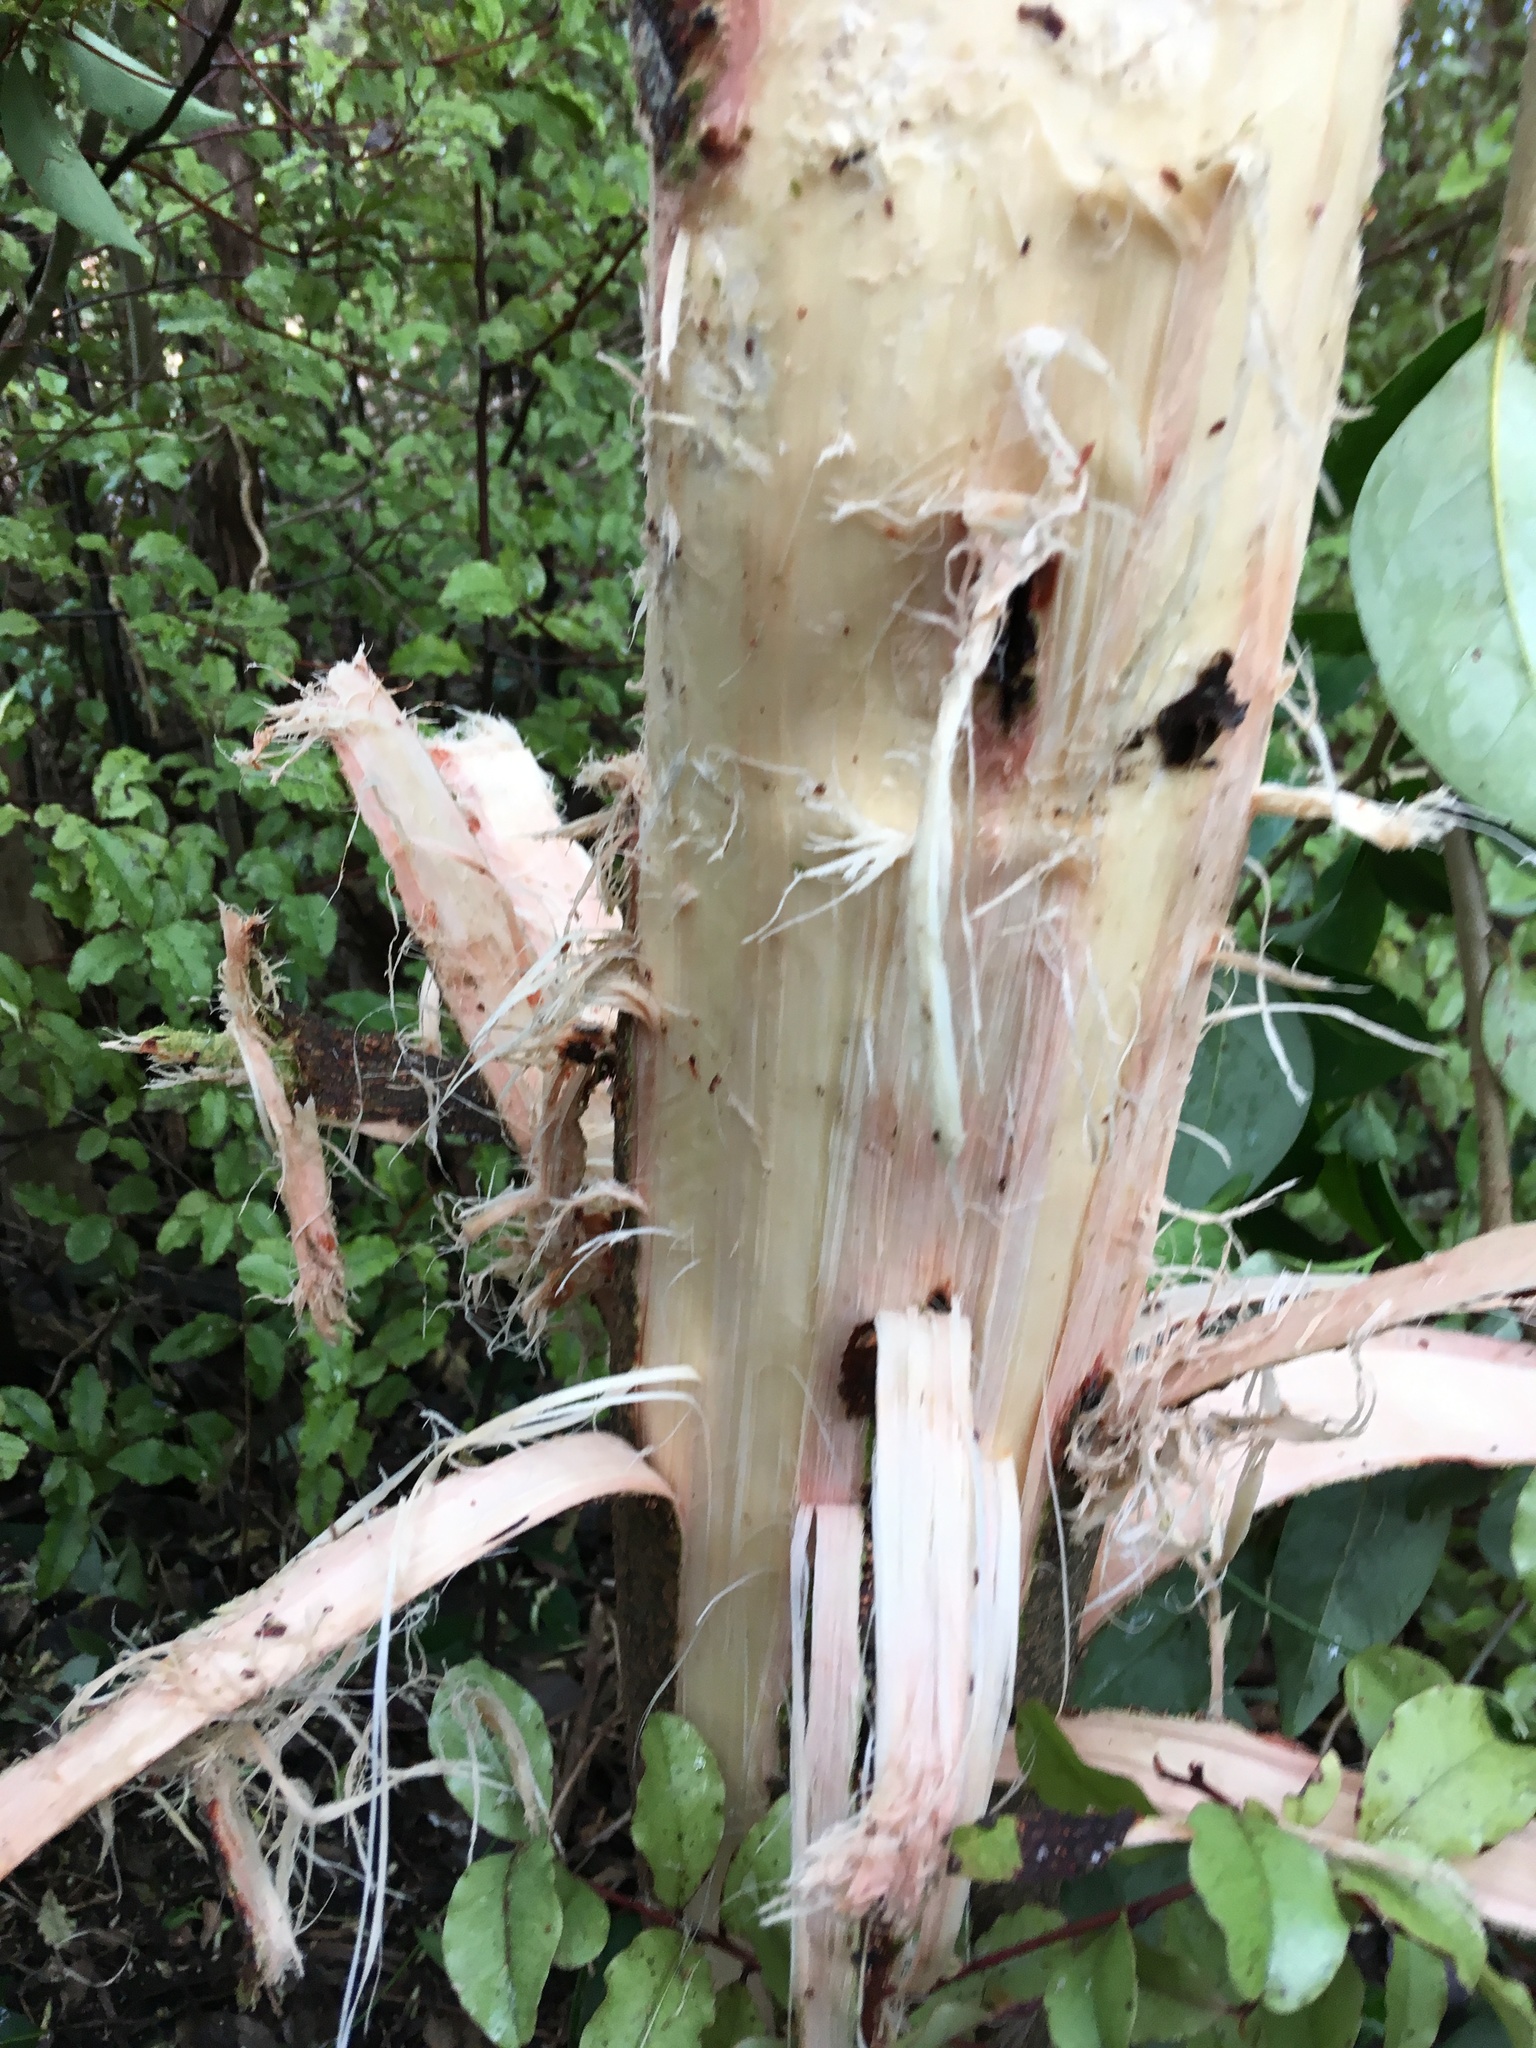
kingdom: Plantae
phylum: Tracheophyta
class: Magnoliopsida
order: Fabales
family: Fabaceae
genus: Paraserianthes
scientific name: Paraserianthes lophantha
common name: Plume albizia
